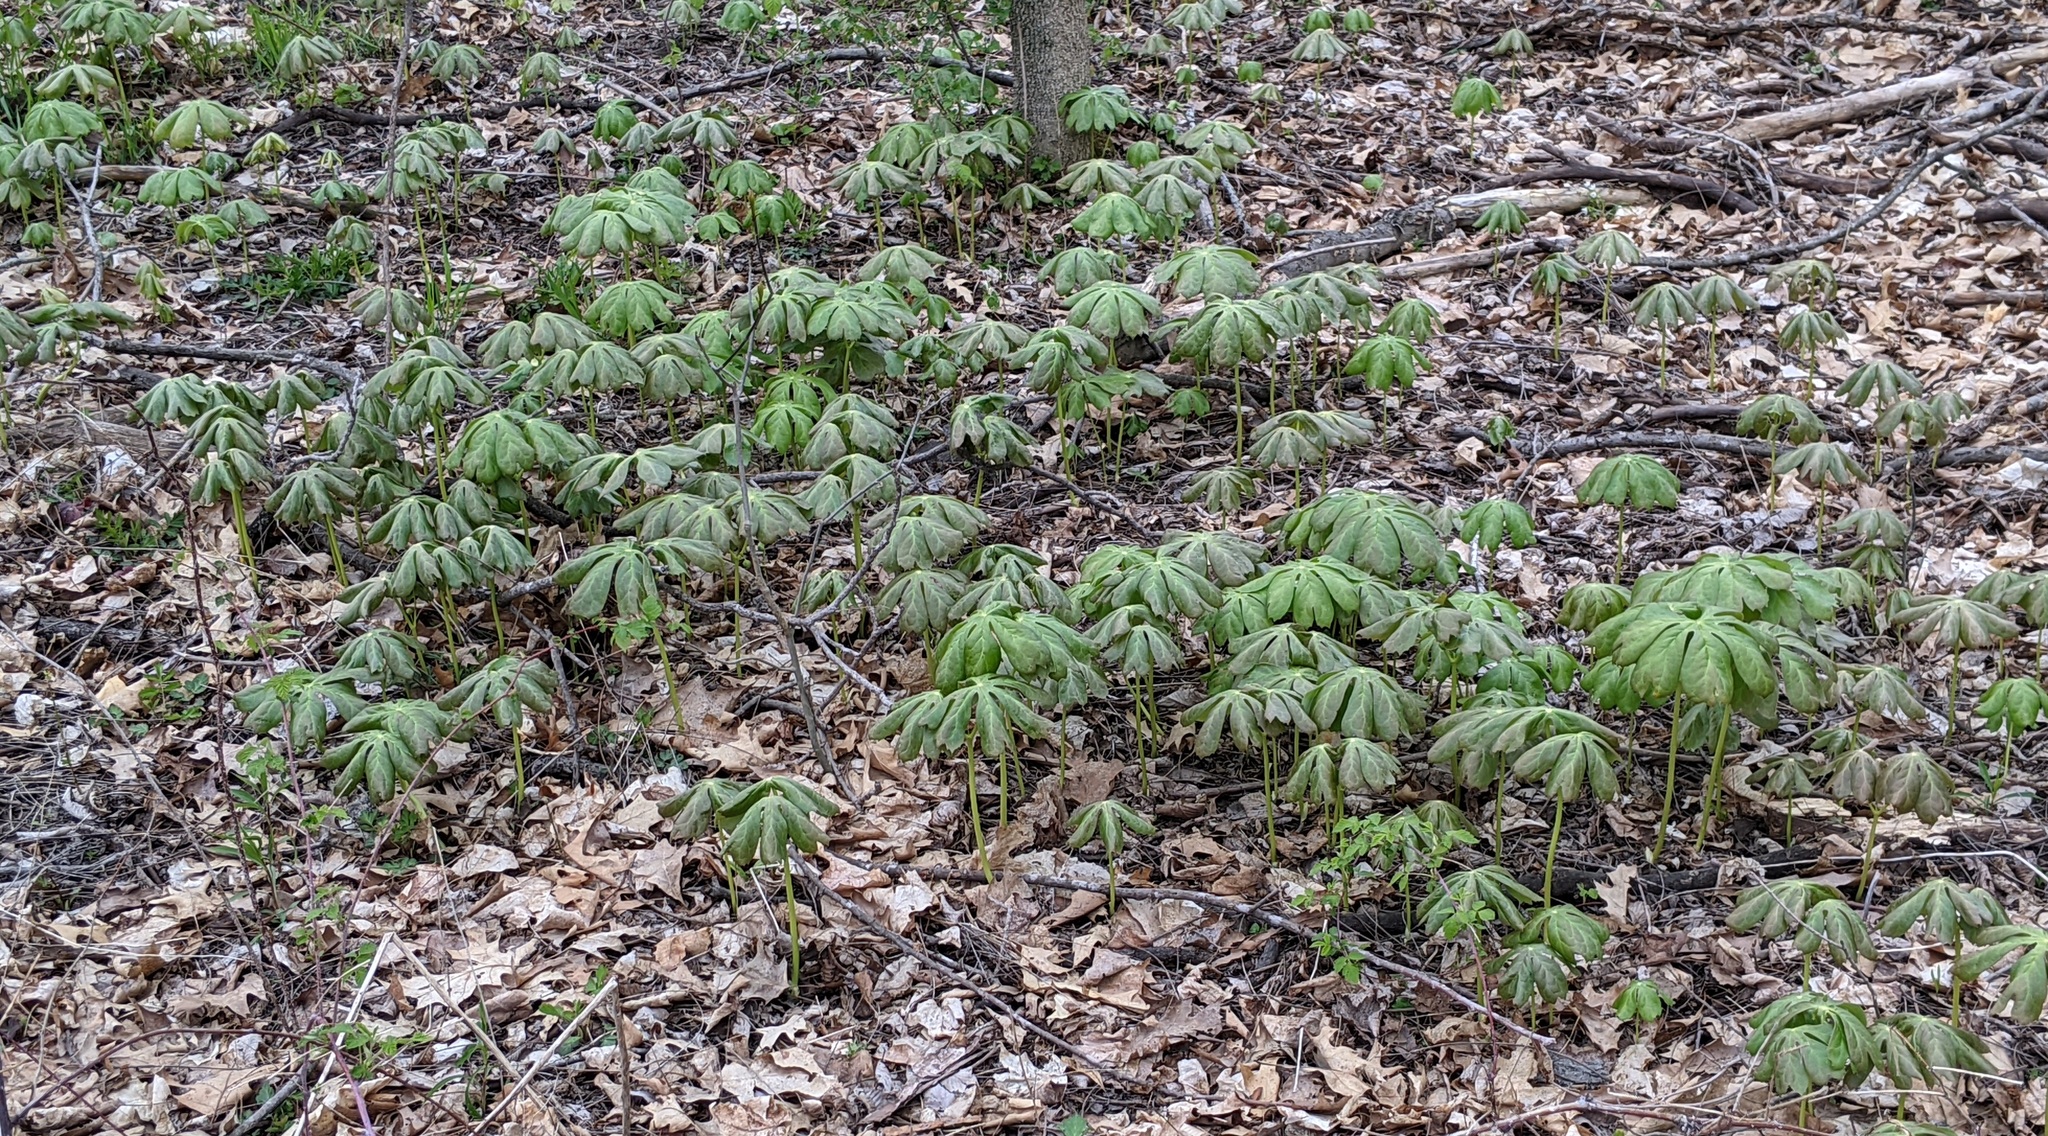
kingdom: Plantae
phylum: Tracheophyta
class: Magnoliopsida
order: Ranunculales
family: Berberidaceae
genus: Podophyllum
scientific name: Podophyllum peltatum
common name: Wild mandrake
